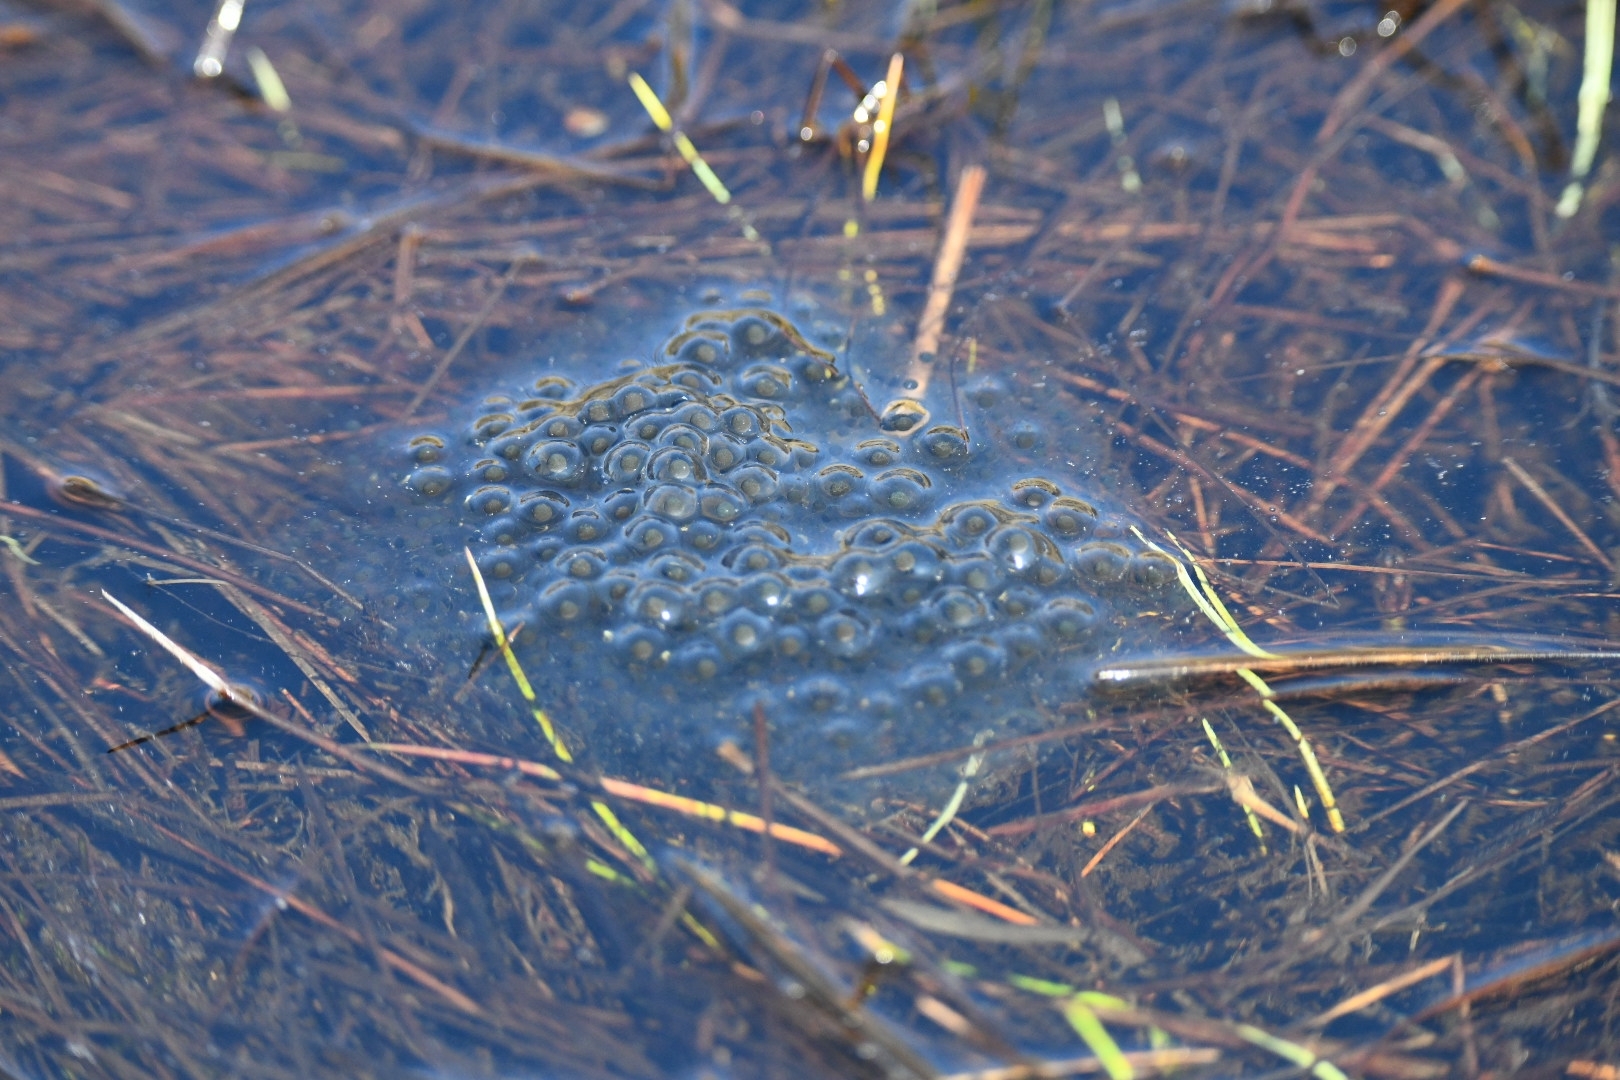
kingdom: Animalia
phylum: Chordata
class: Amphibia
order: Anura
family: Ranidae
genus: Rana
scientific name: Rana temporaria
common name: Common frog
